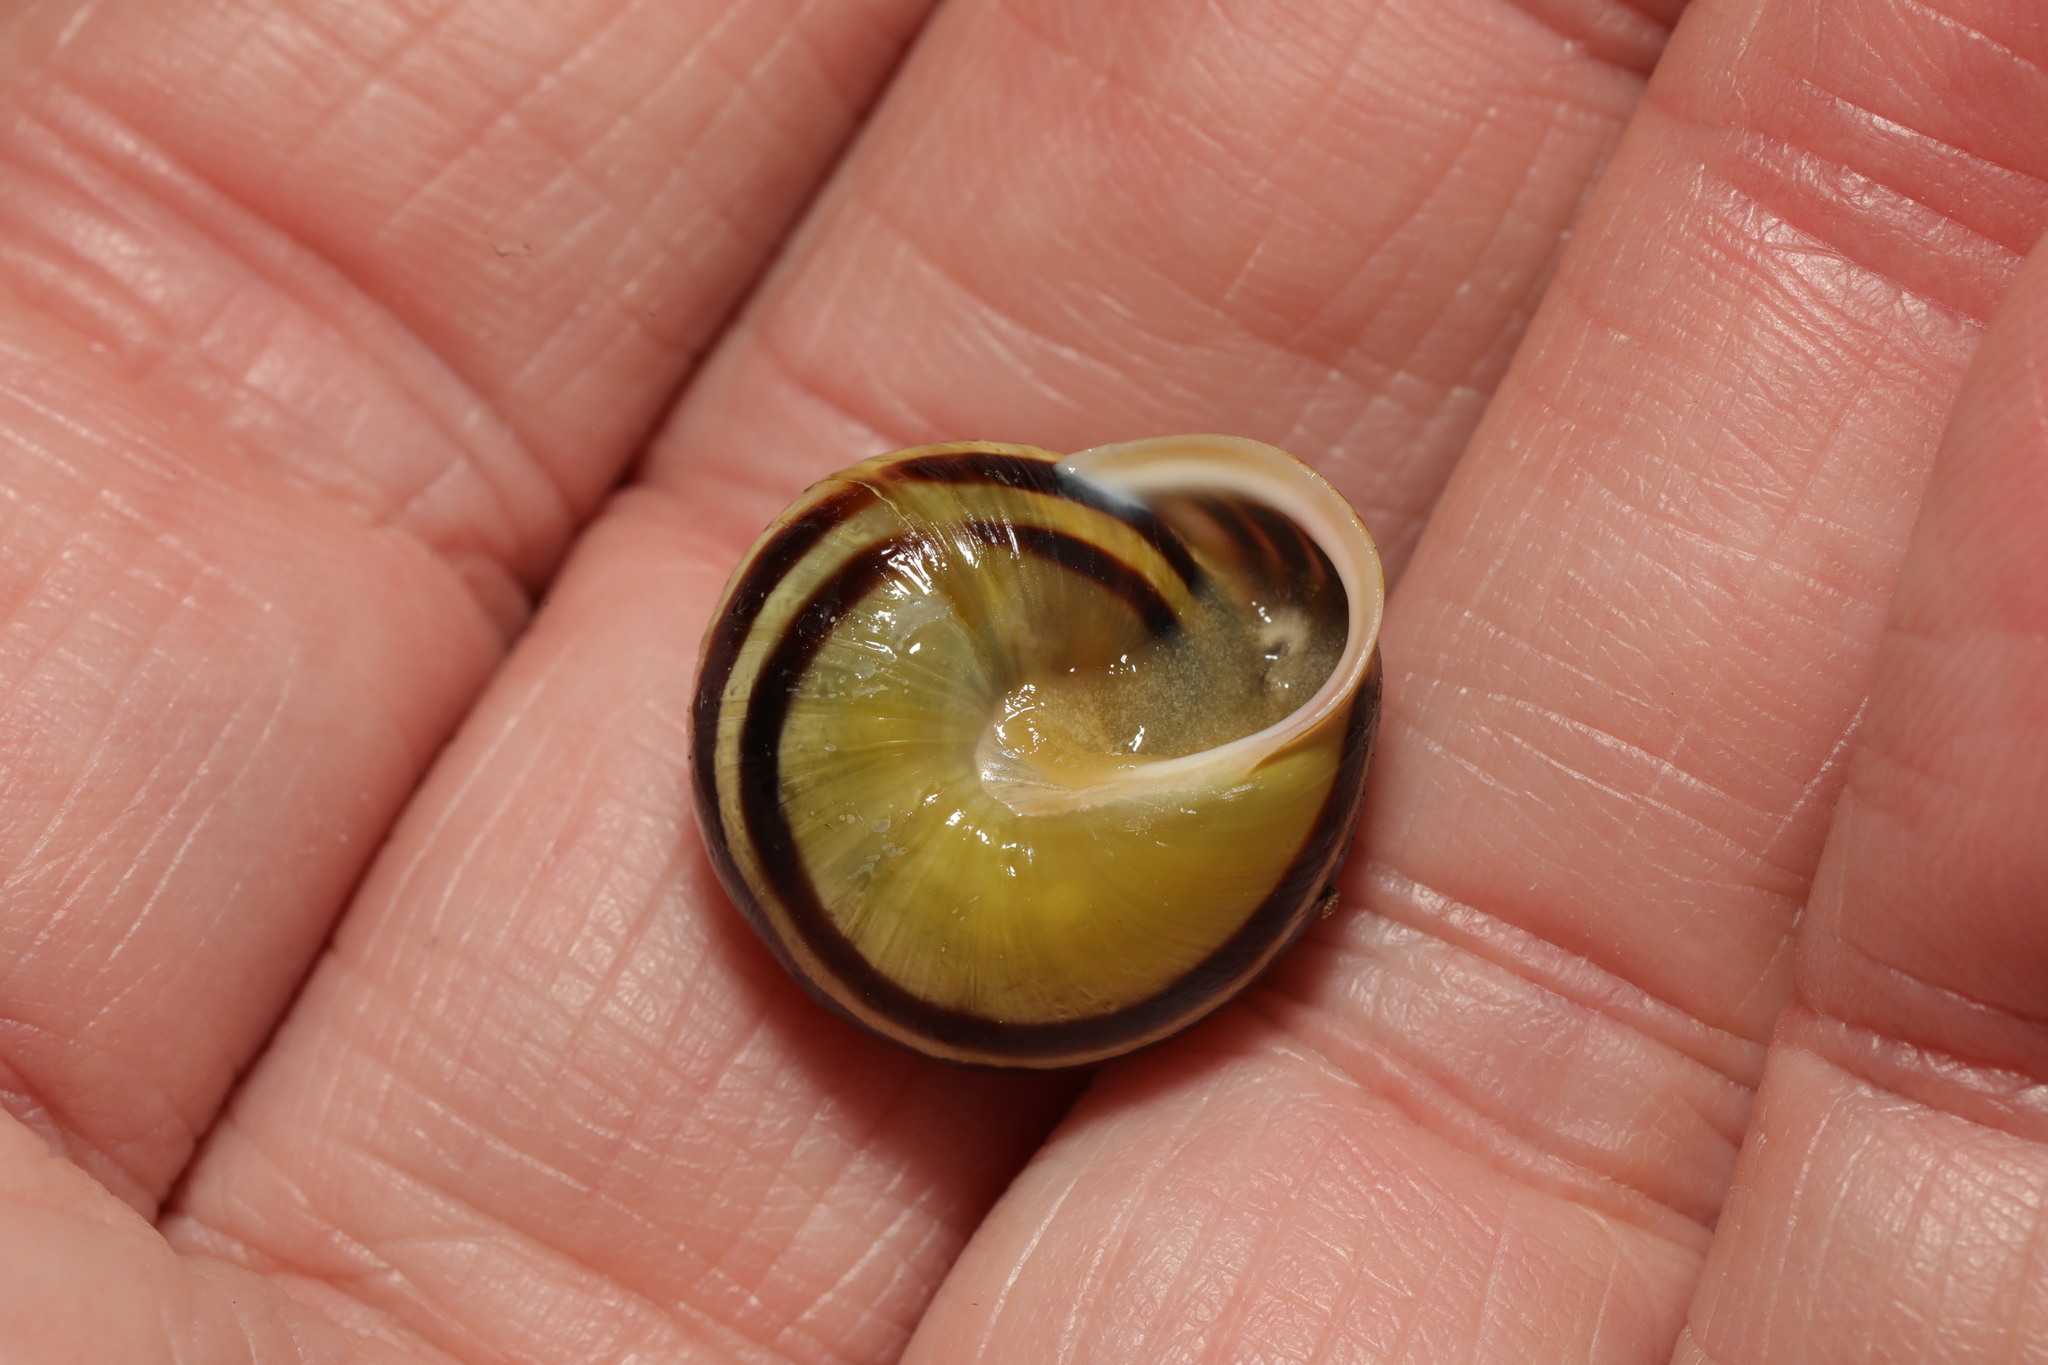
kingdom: Animalia
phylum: Mollusca
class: Gastropoda
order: Stylommatophora
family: Helicidae
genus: Cepaea
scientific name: Cepaea hortensis
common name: White-lip gardensnail
